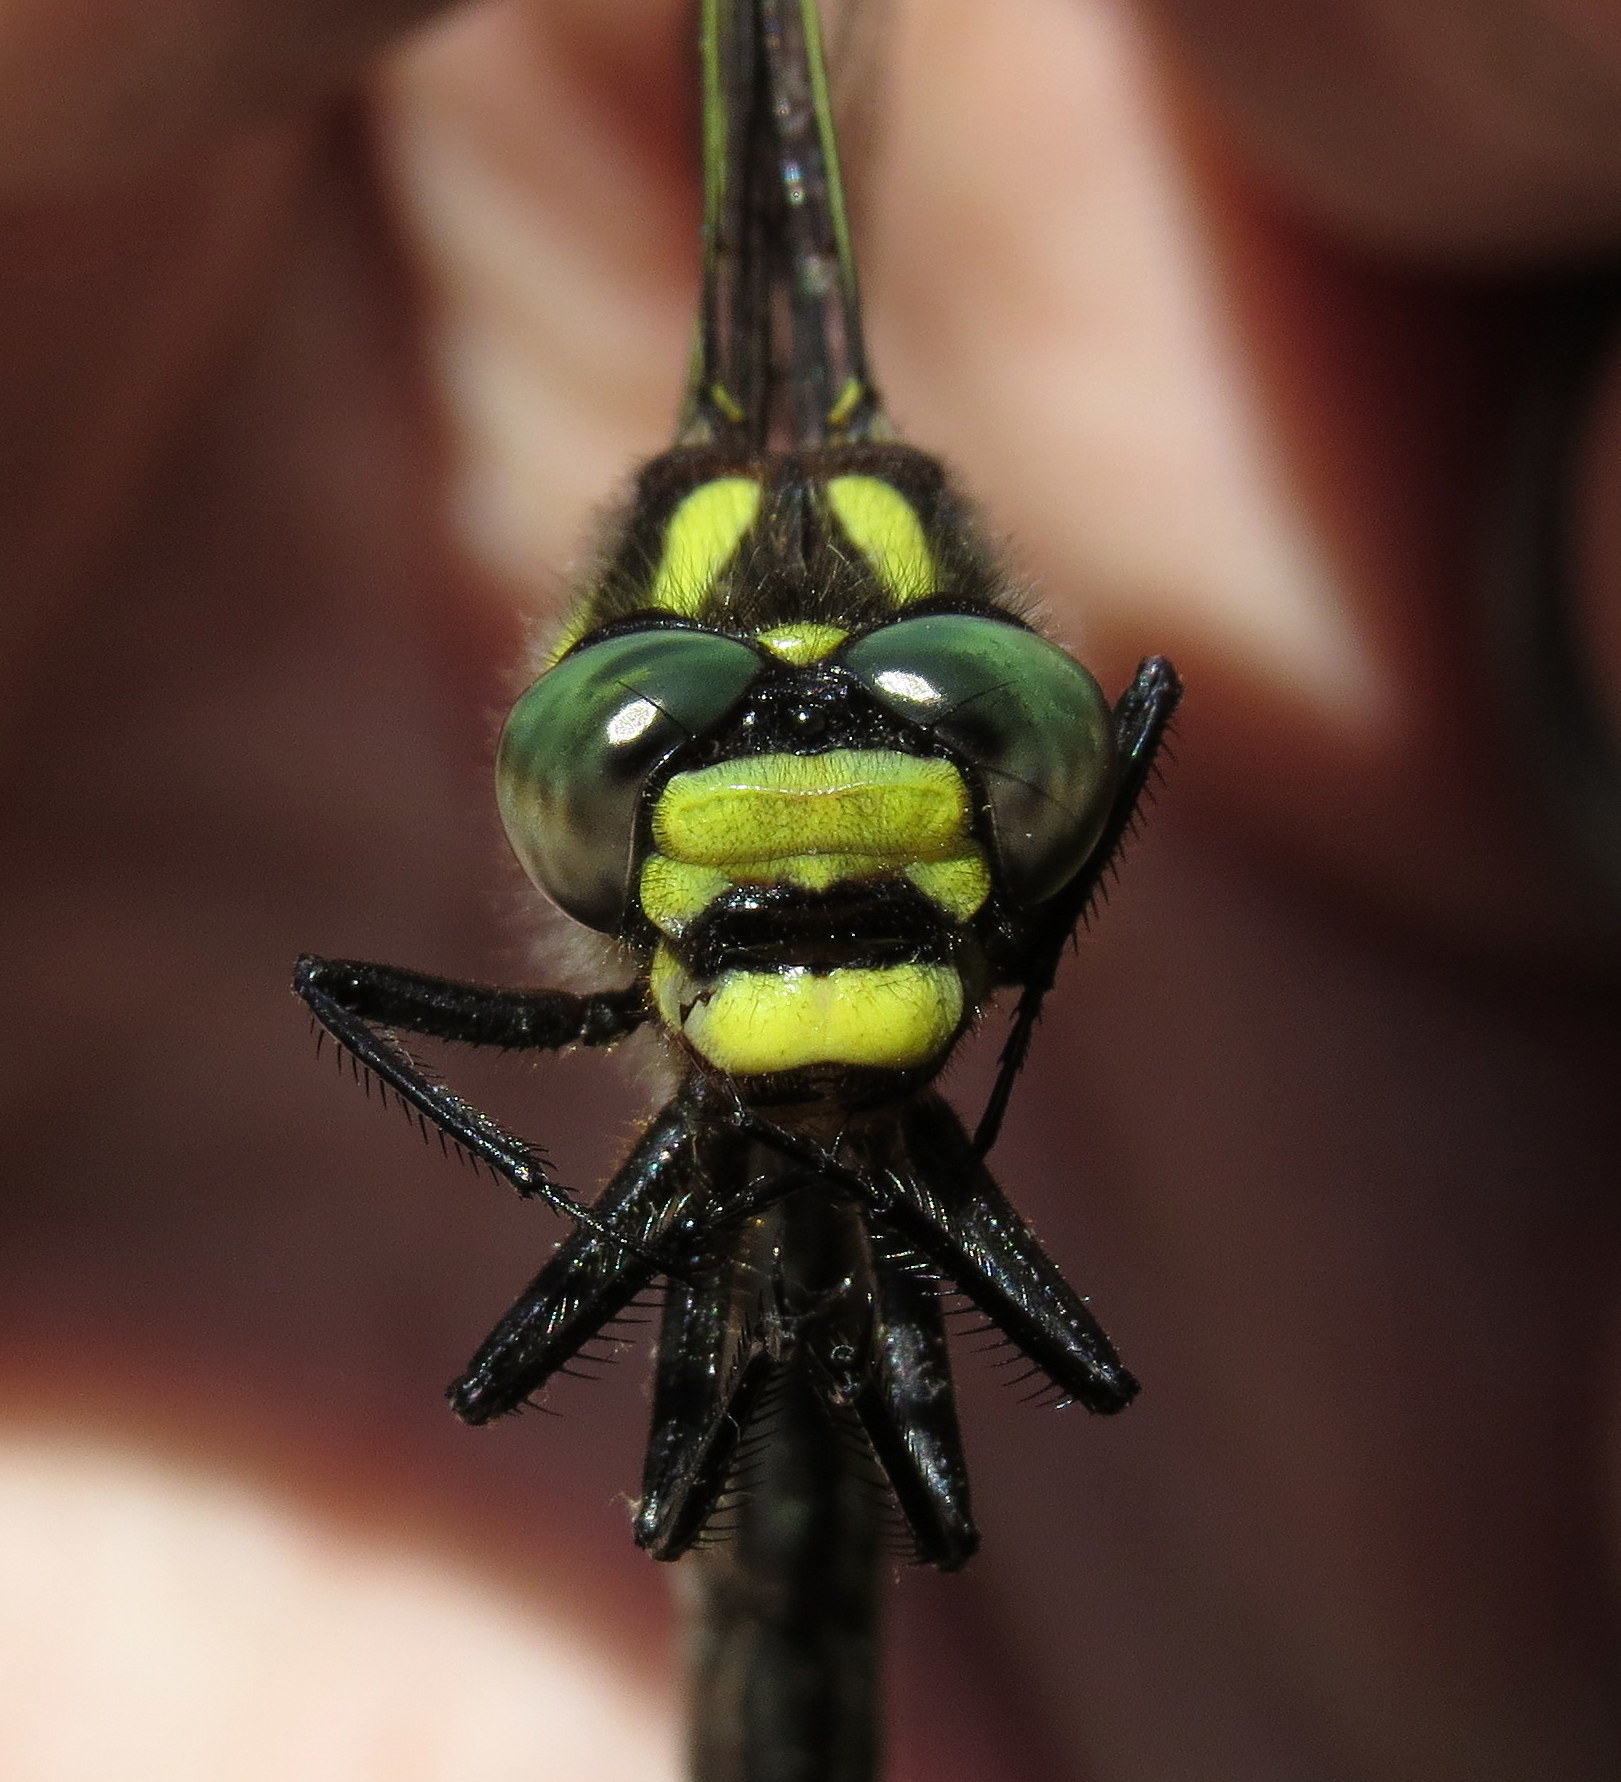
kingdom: Animalia
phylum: Arthropoda
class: Insecta
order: Odonata
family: Cordulegastridae
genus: Cordulegaster
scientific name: Cordulegaster diastatops
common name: Delta-spotted spiketail
